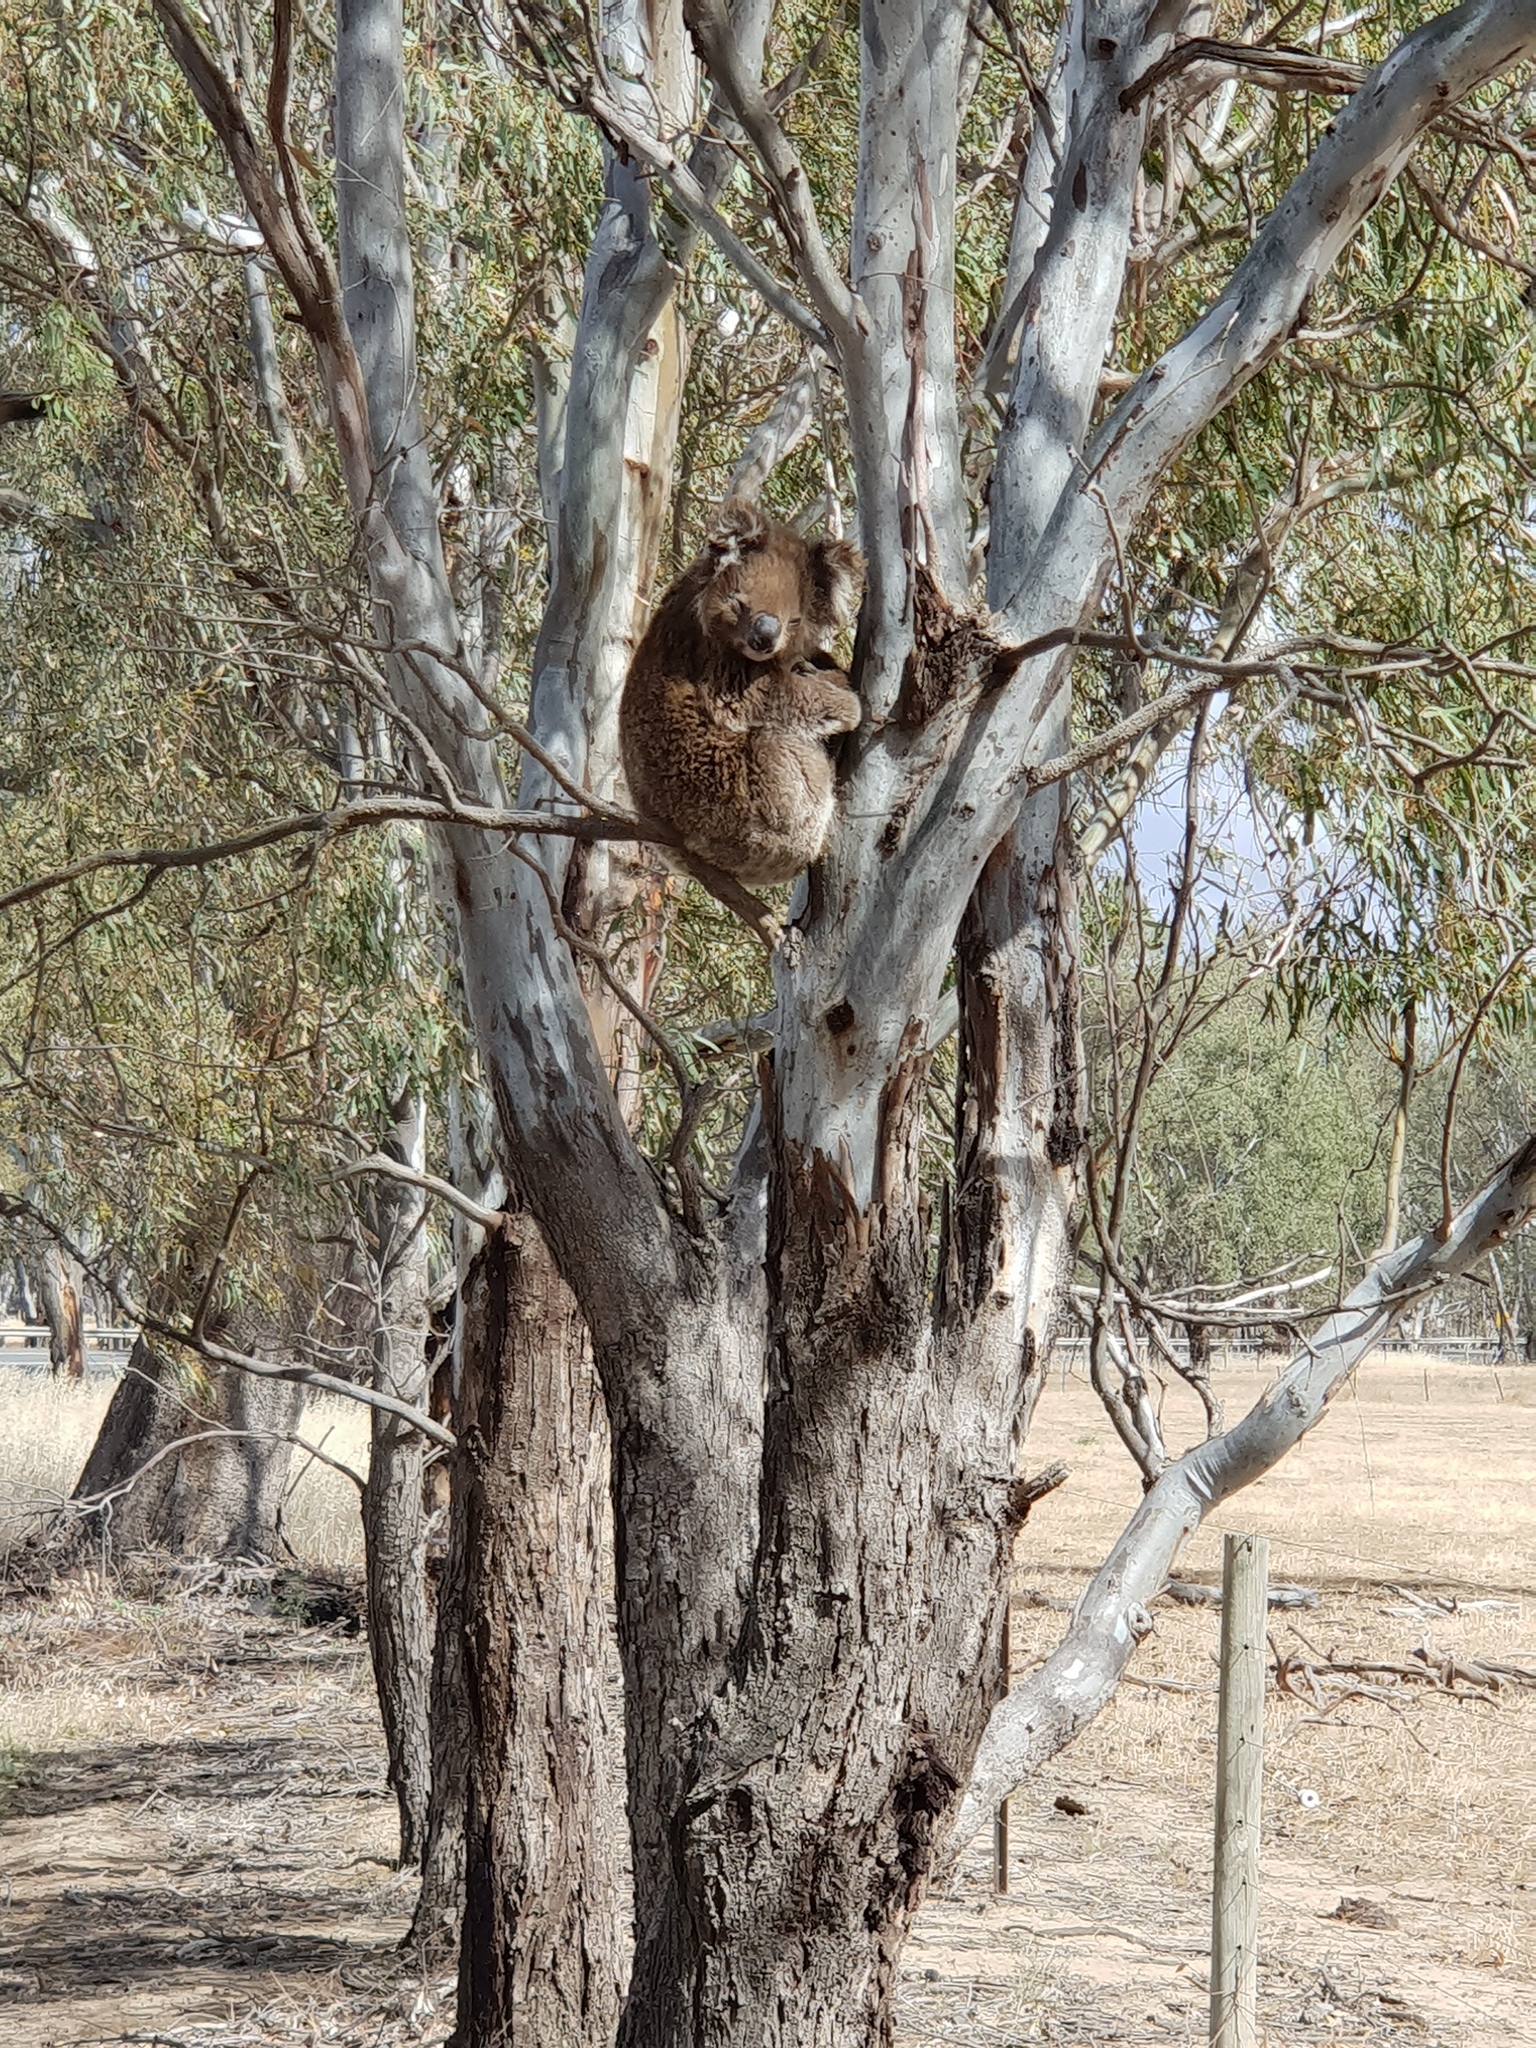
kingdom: Animalia
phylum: Chordata
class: Mammalia
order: Diprotodontia
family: Phascolarctidae
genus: Phascolarctos
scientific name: Phascolarctos cinereus
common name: Koala
